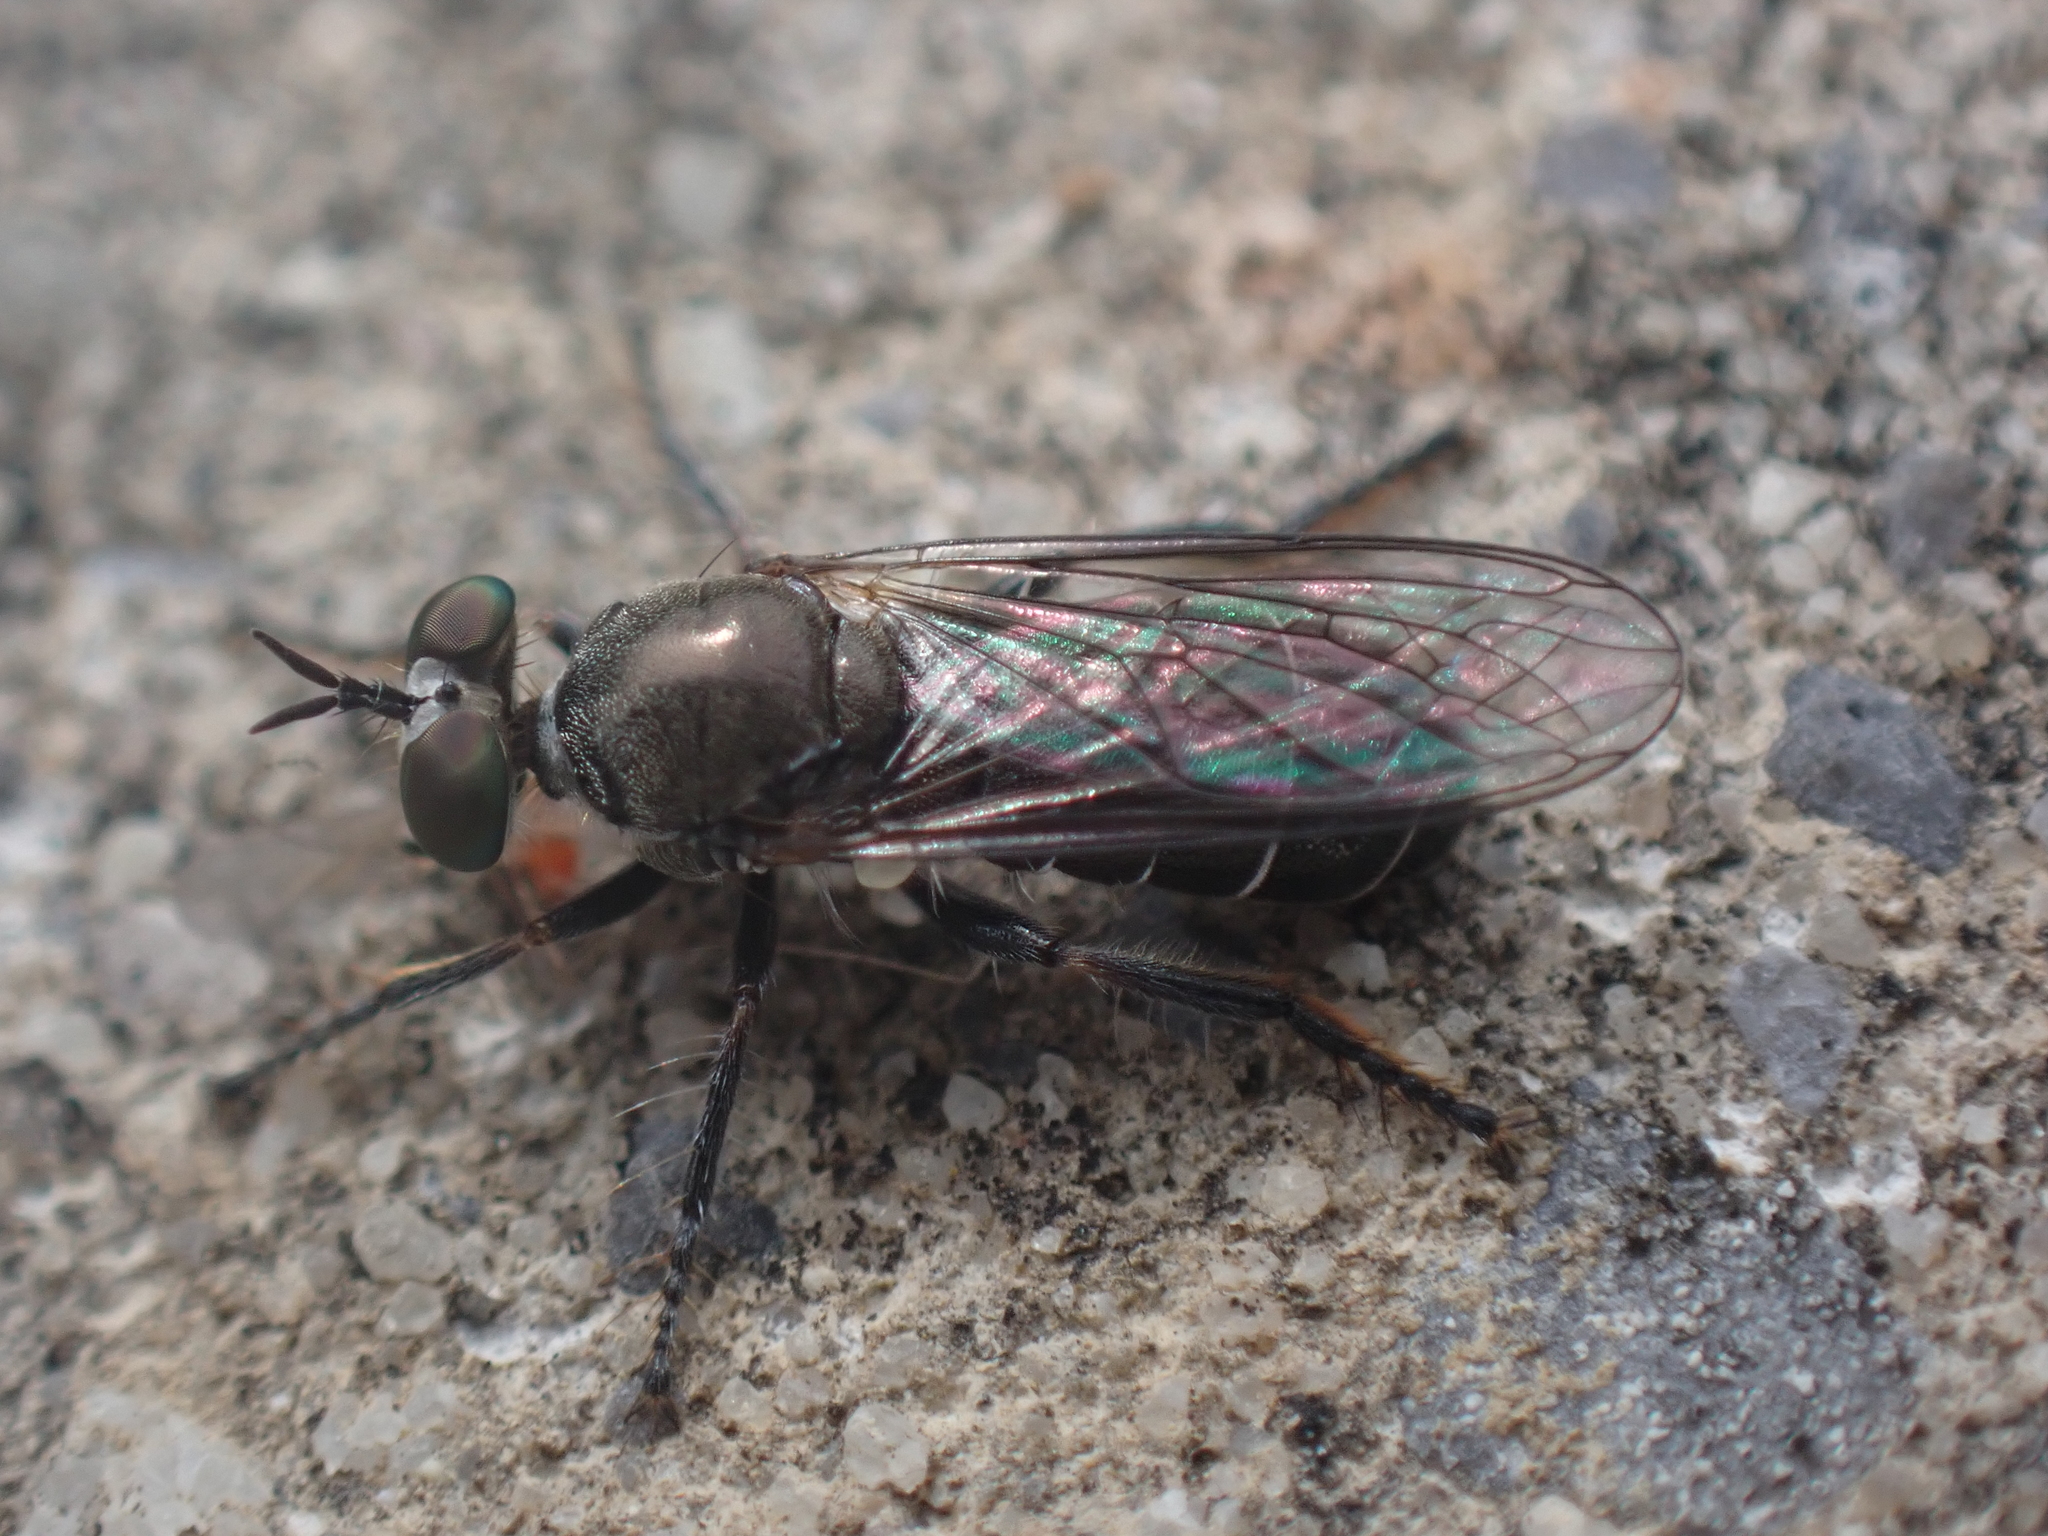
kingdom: Animalia
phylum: Arthropoda
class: Insecta
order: Diptera
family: Asilidae
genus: Atomosia
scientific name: Atomosia puella
